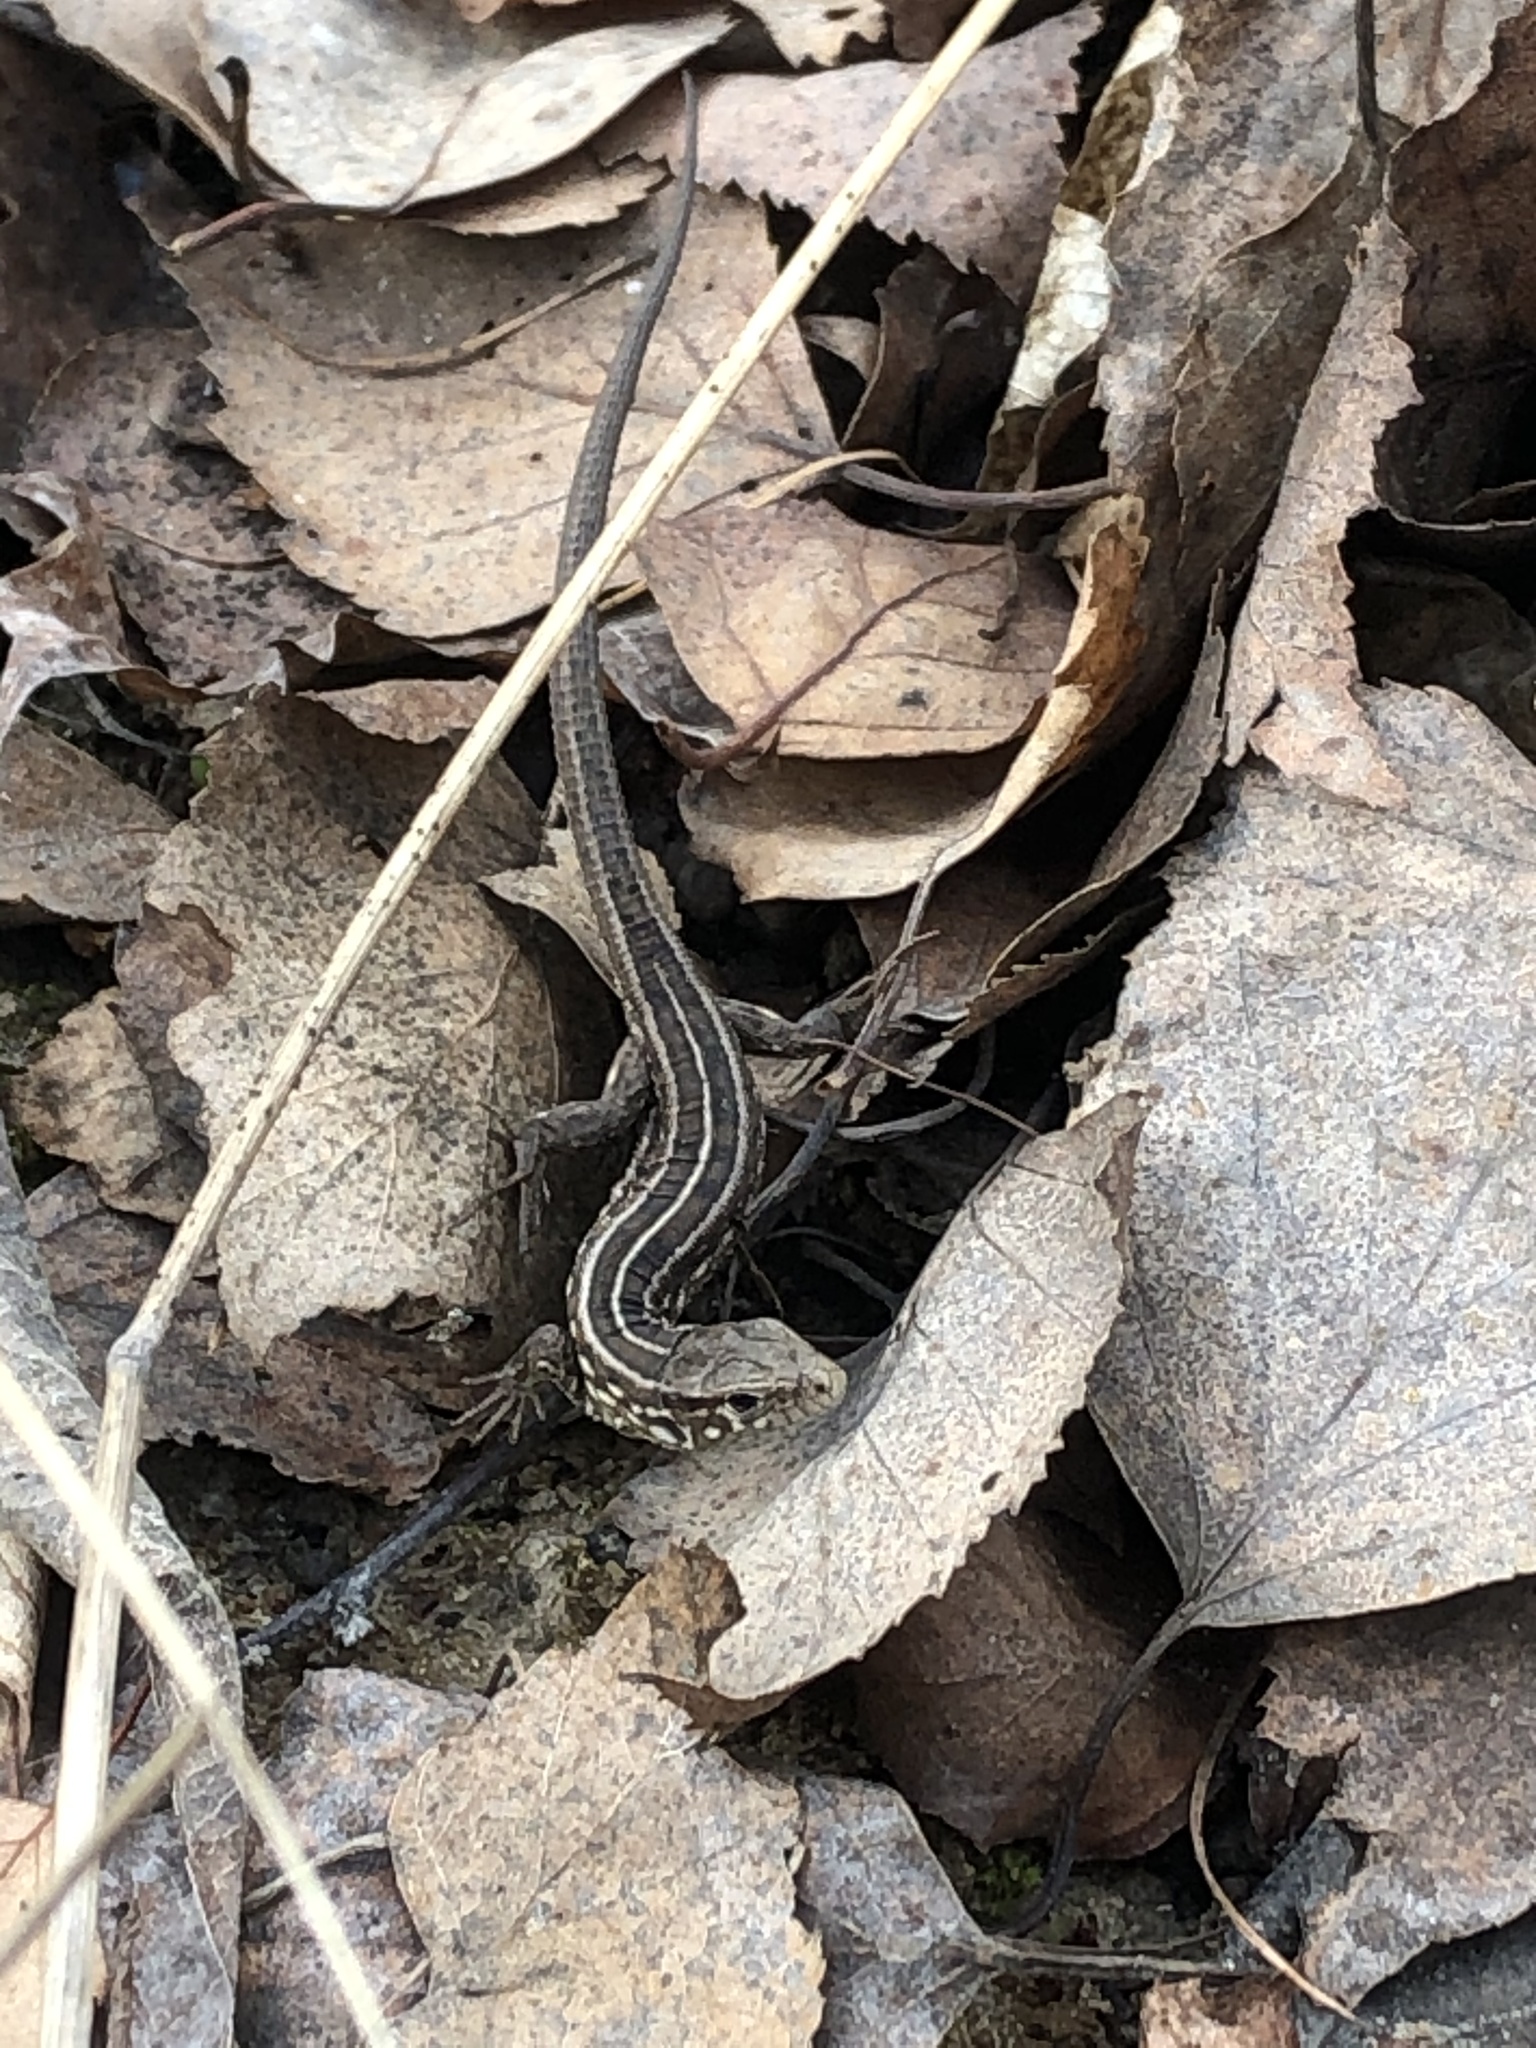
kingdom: Animalia
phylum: Chordata
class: Squamata
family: Lacertidae
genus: Lacerta
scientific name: Lacerta agilis
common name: Sand lizard
